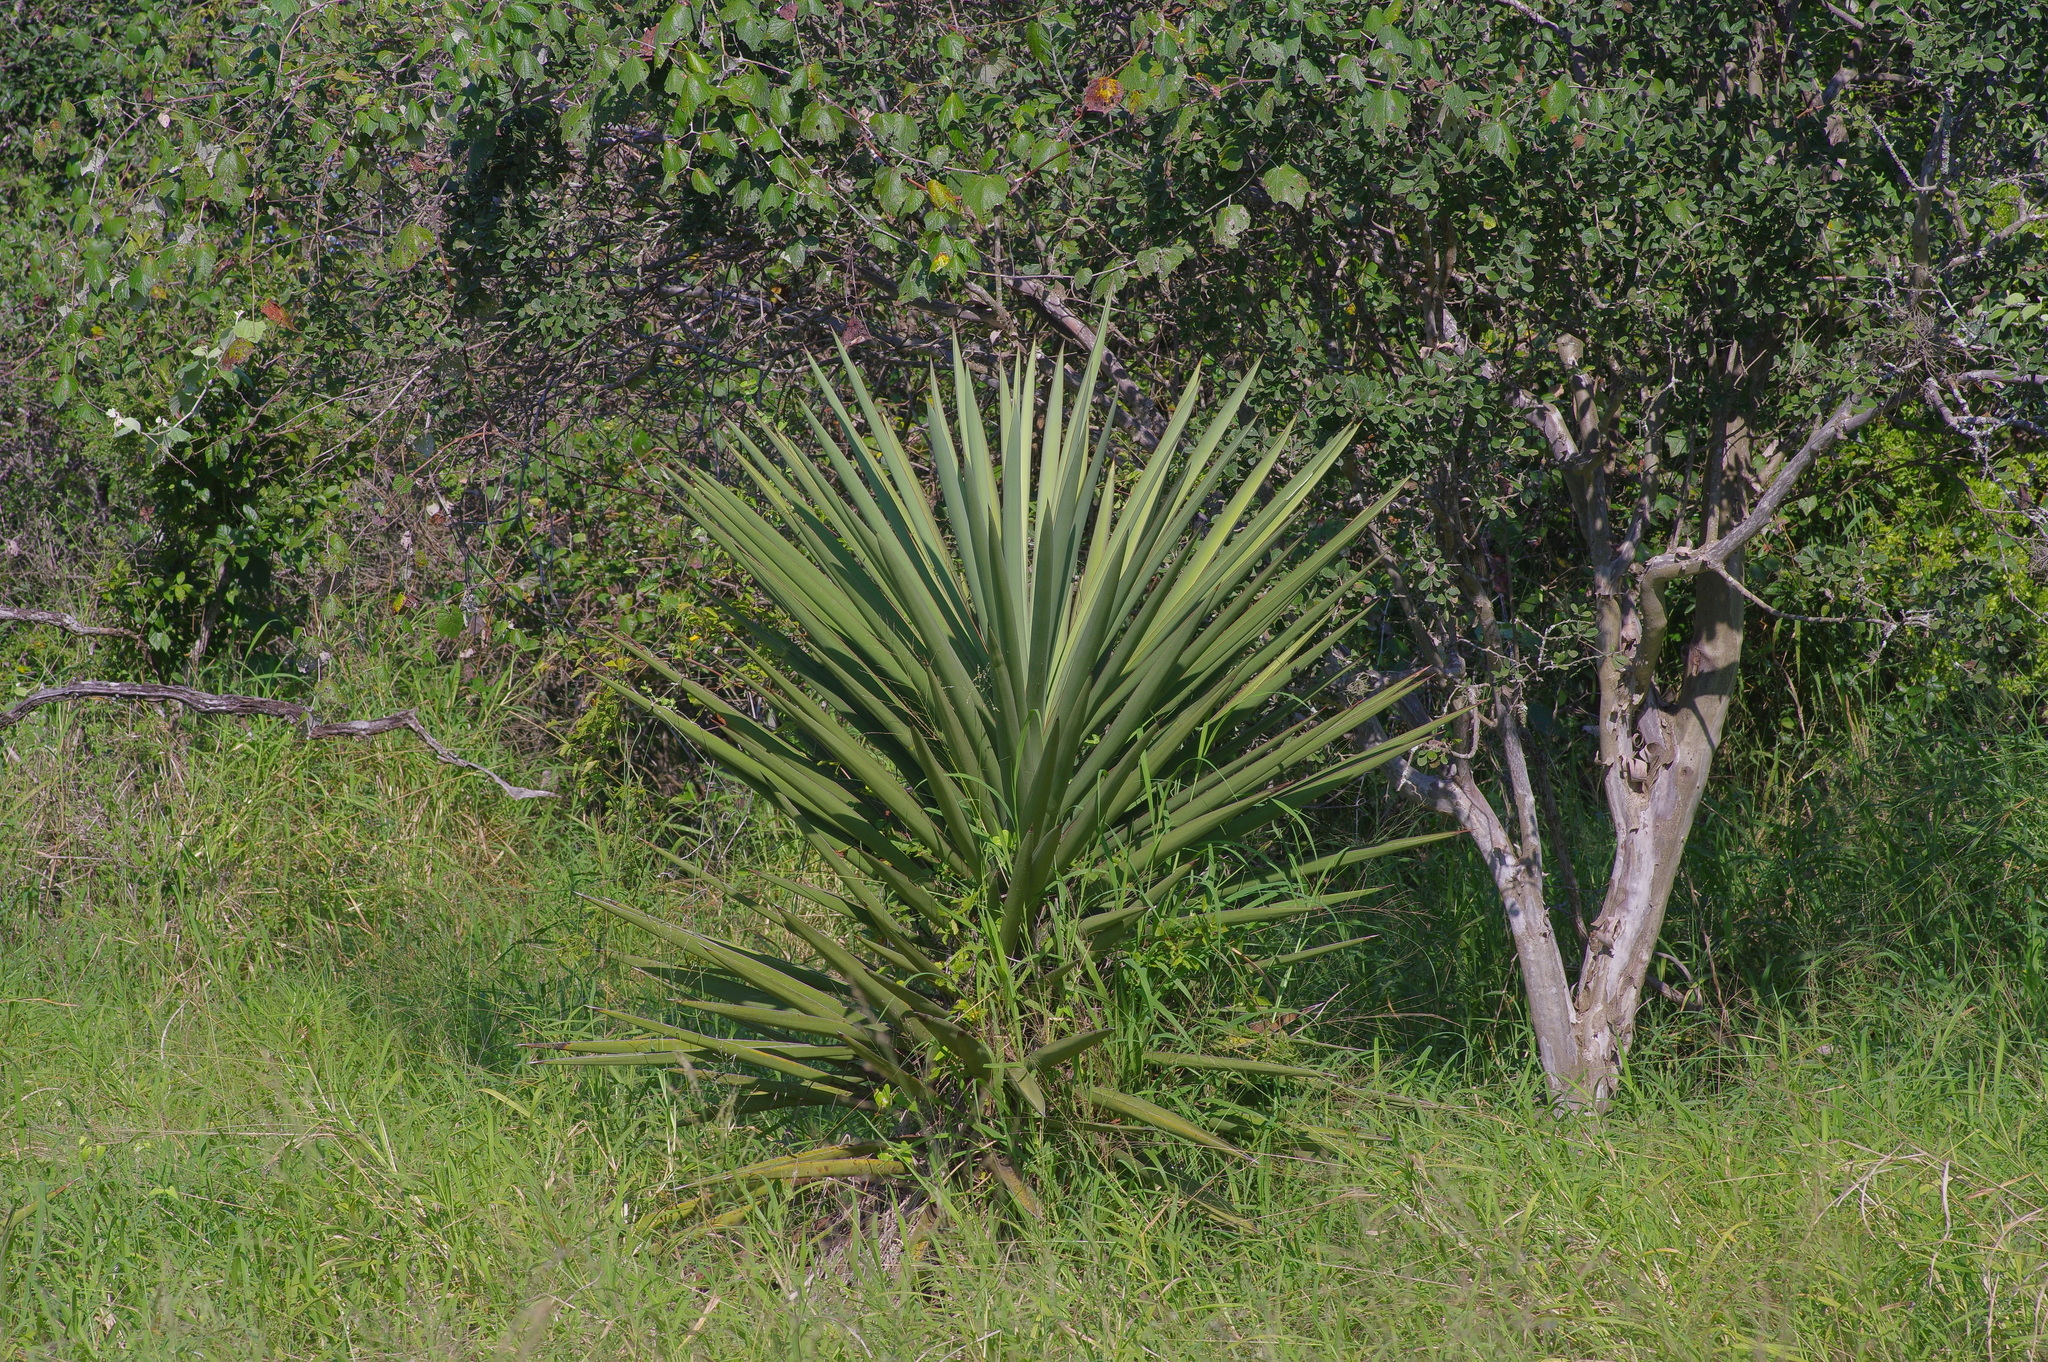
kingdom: Plantae
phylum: Tracheophyta
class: Liliopsida
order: Asparagales
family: Asparagaceae
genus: Yucca
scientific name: Yucca treculiana
